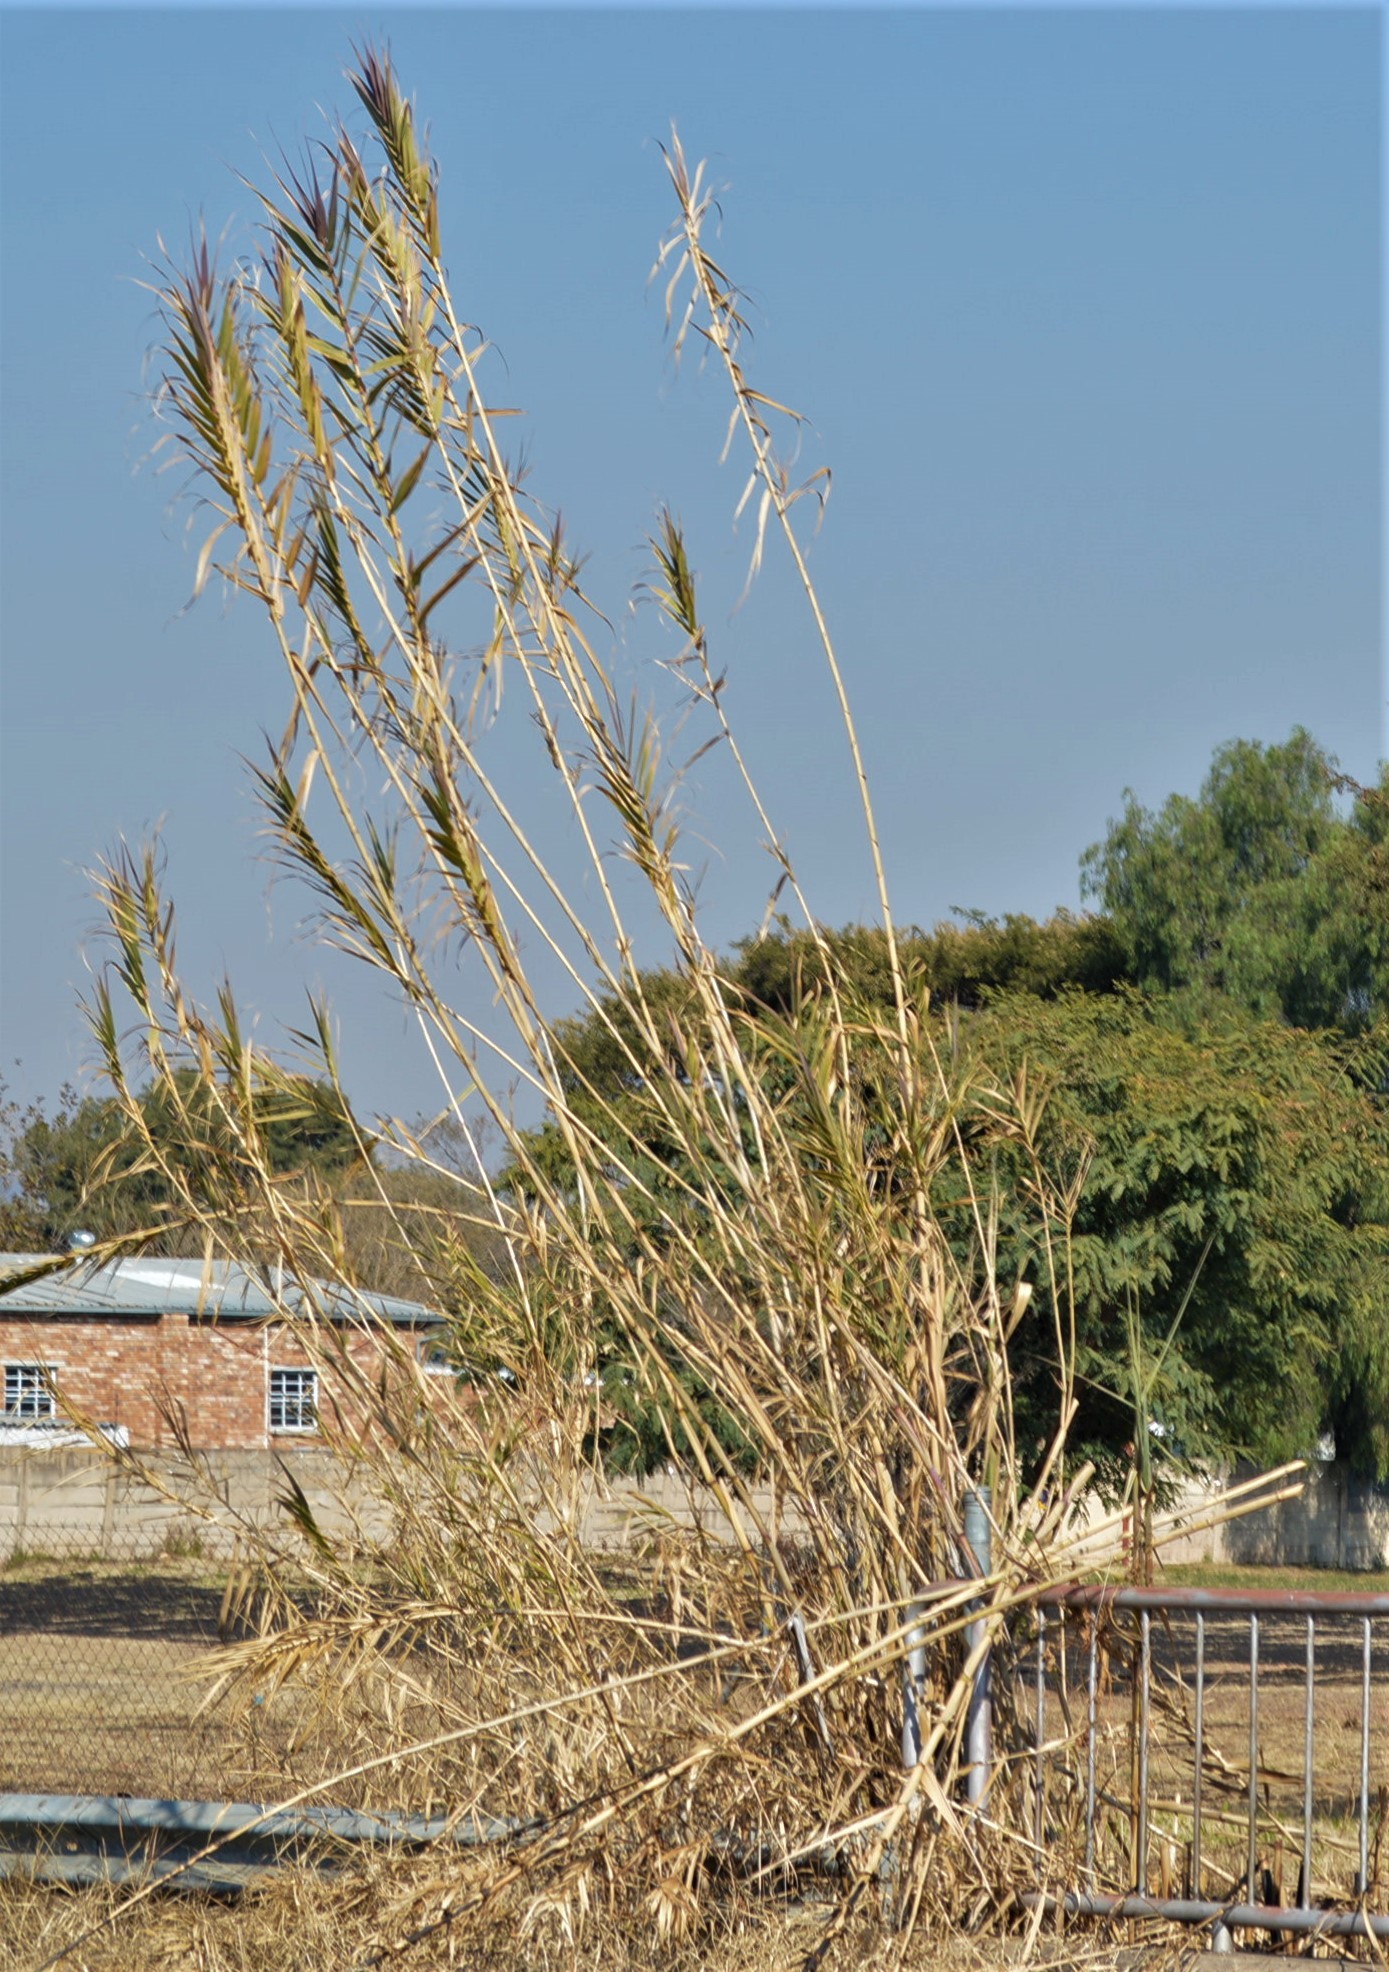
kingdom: Plantae
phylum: Tracheophyta
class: Liliopsida
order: Poales
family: Poaceae
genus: Arundo
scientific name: Arundo donax
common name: Giant reed
